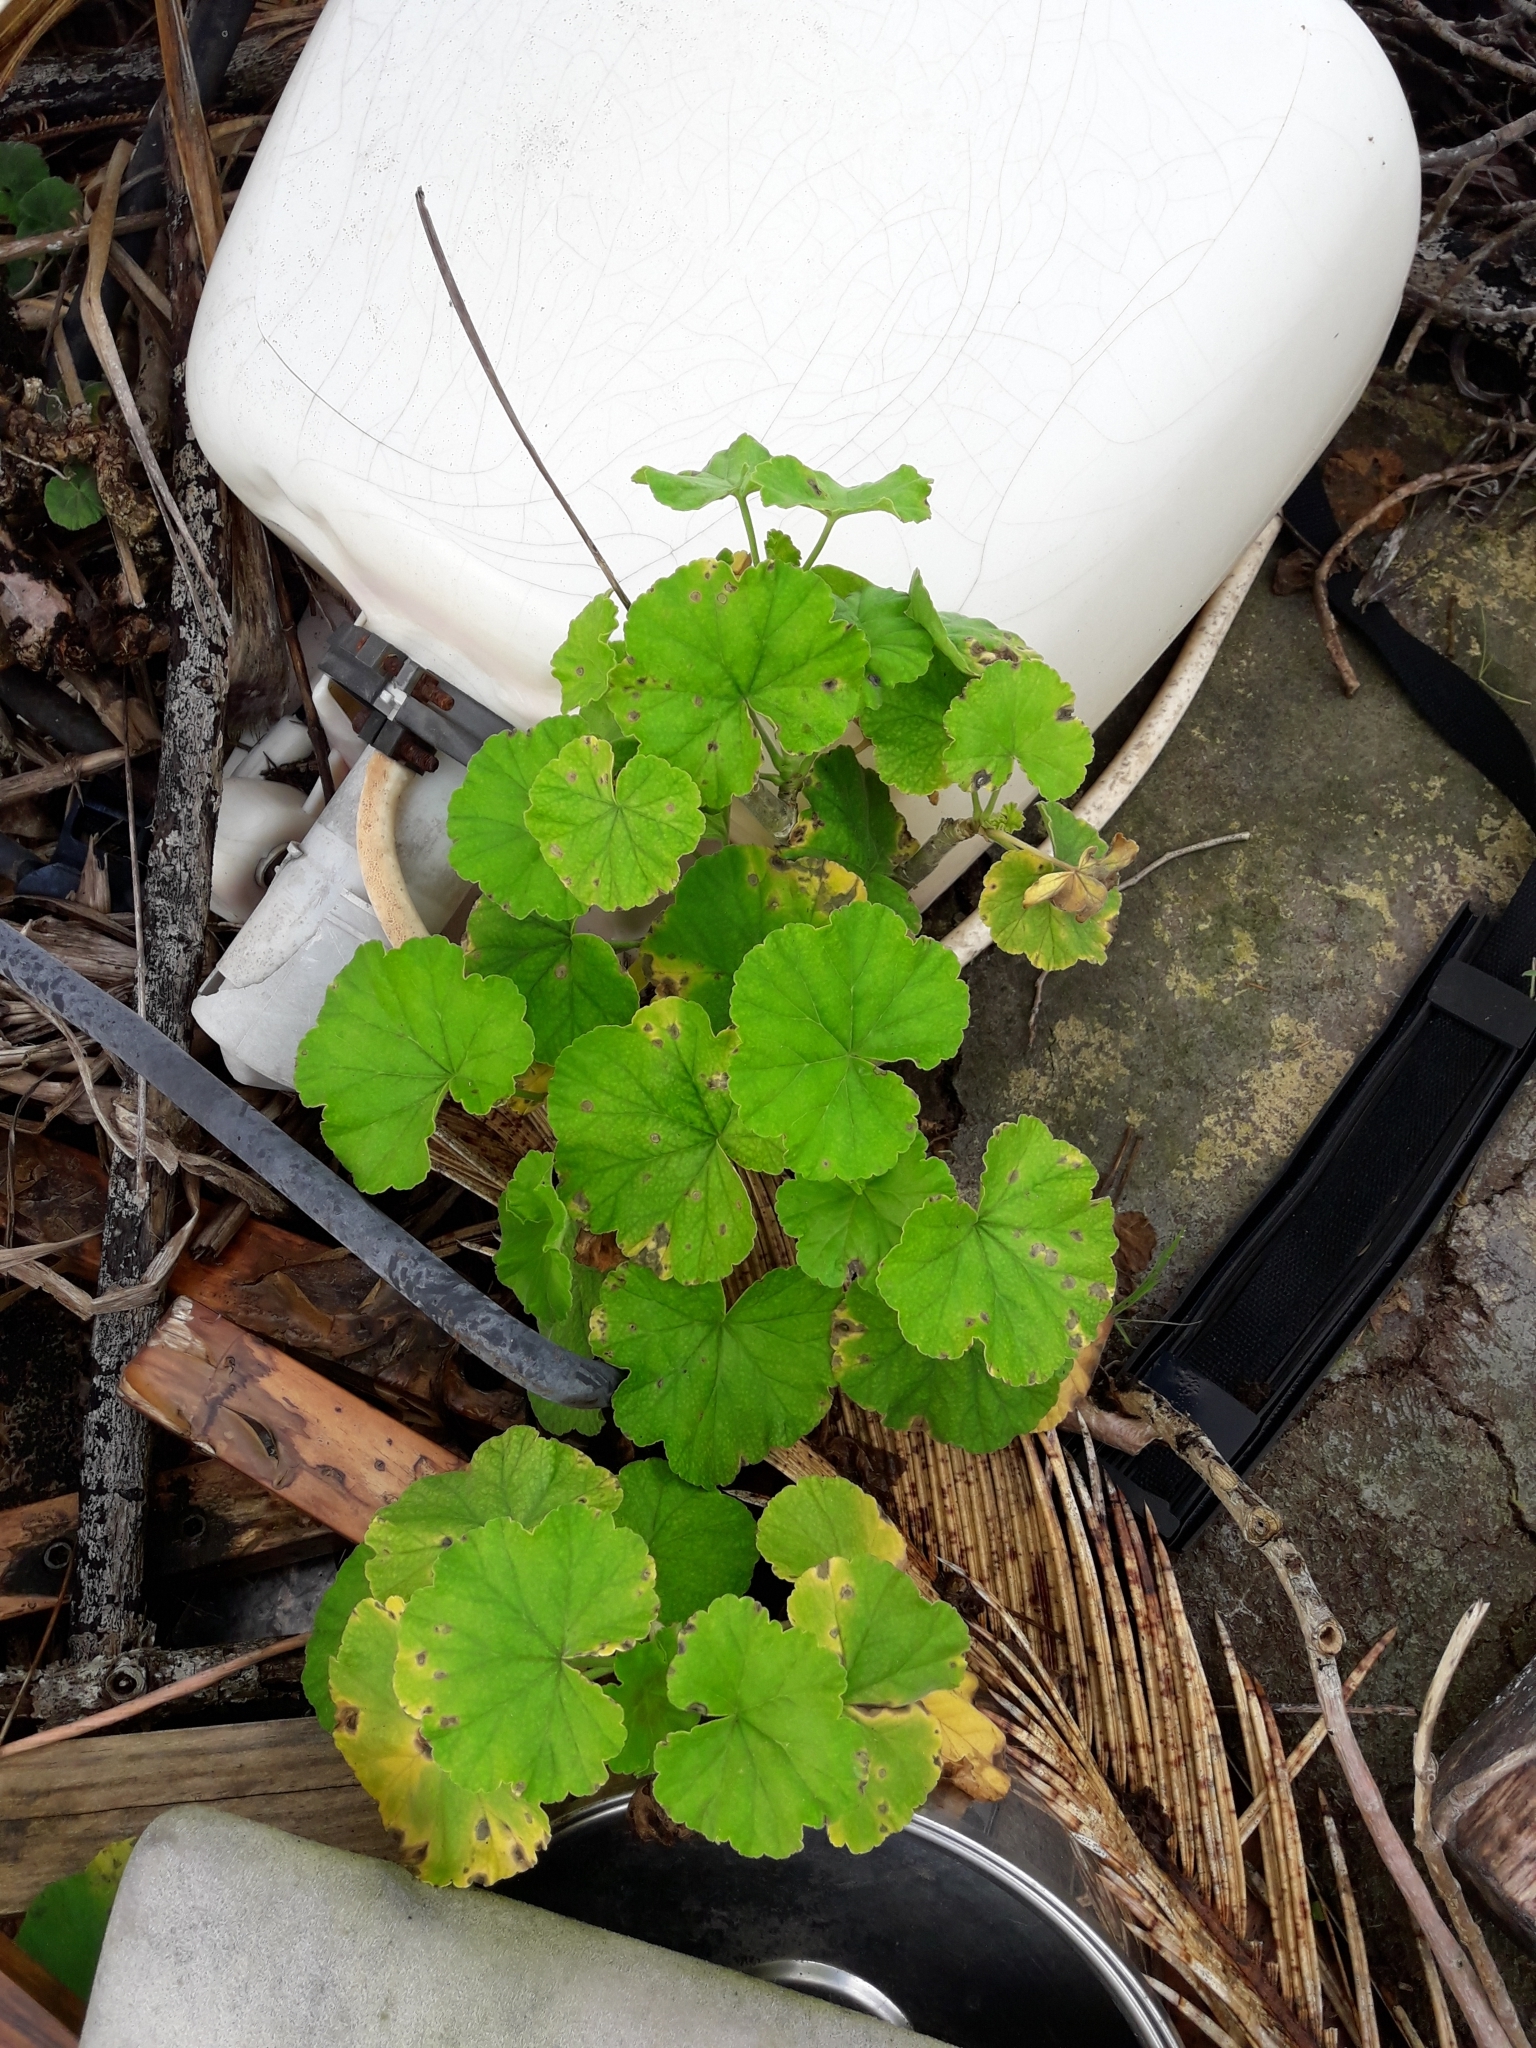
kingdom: Plantae
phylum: Tracheophyta
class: Magnoliopsida
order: Geraniales
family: Geraniaceae
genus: Pelargonium
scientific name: Pelargonium hybridum
